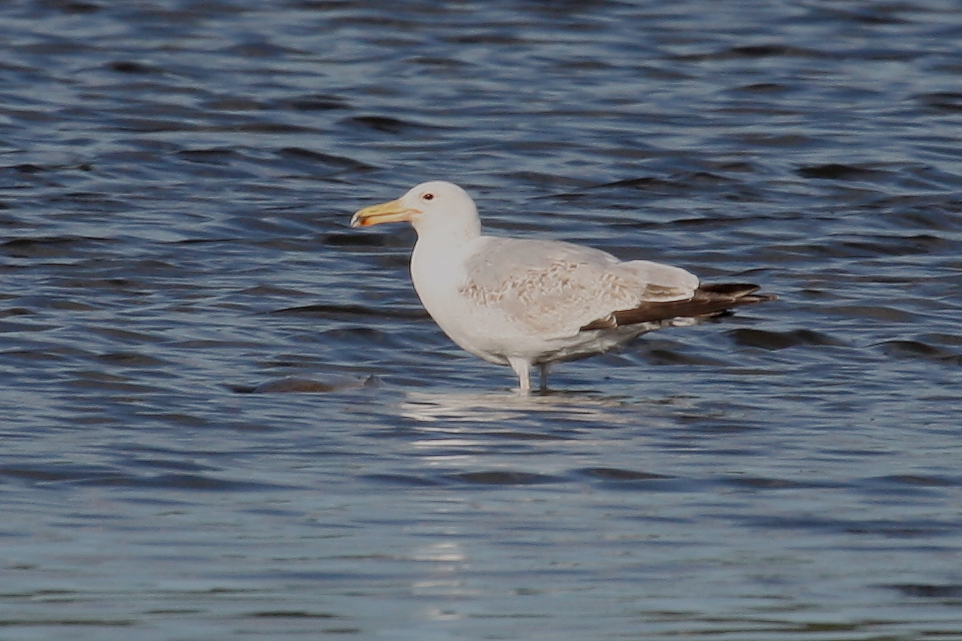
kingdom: Animalia
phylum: Chordata
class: Aves
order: Charadriiformes
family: Laridae
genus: Larus
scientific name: Larus cachinnans
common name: Caspian gull
